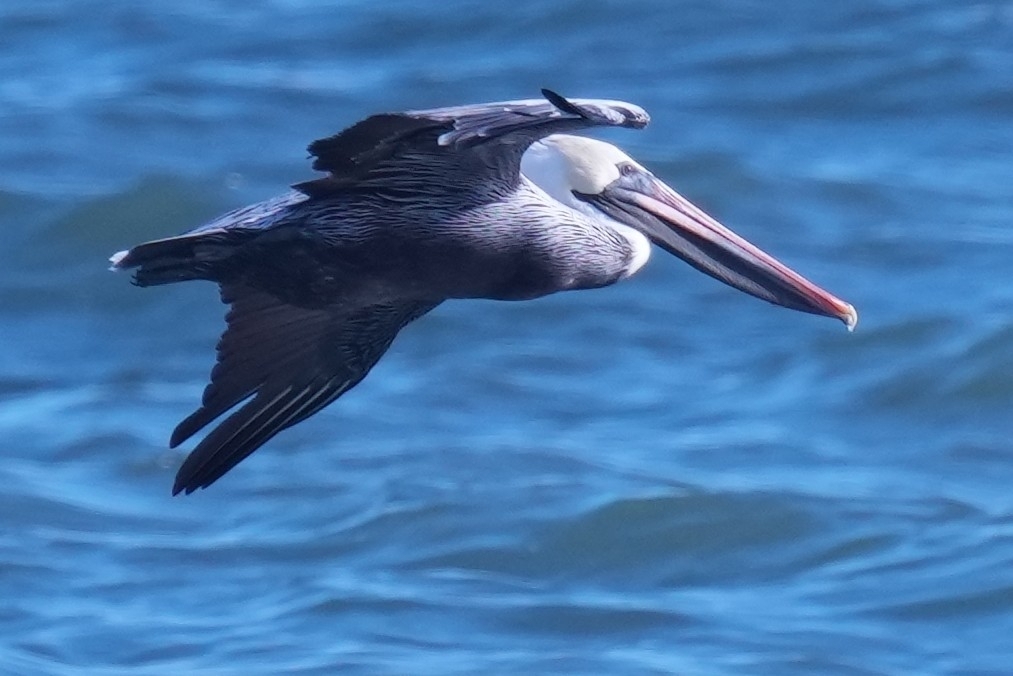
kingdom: Animalia
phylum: Chordata
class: Aves
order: Pelecaniformes
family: Pelecanidae
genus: Pelecanus
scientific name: Pelecanus occidentalis
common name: Brown pelican
